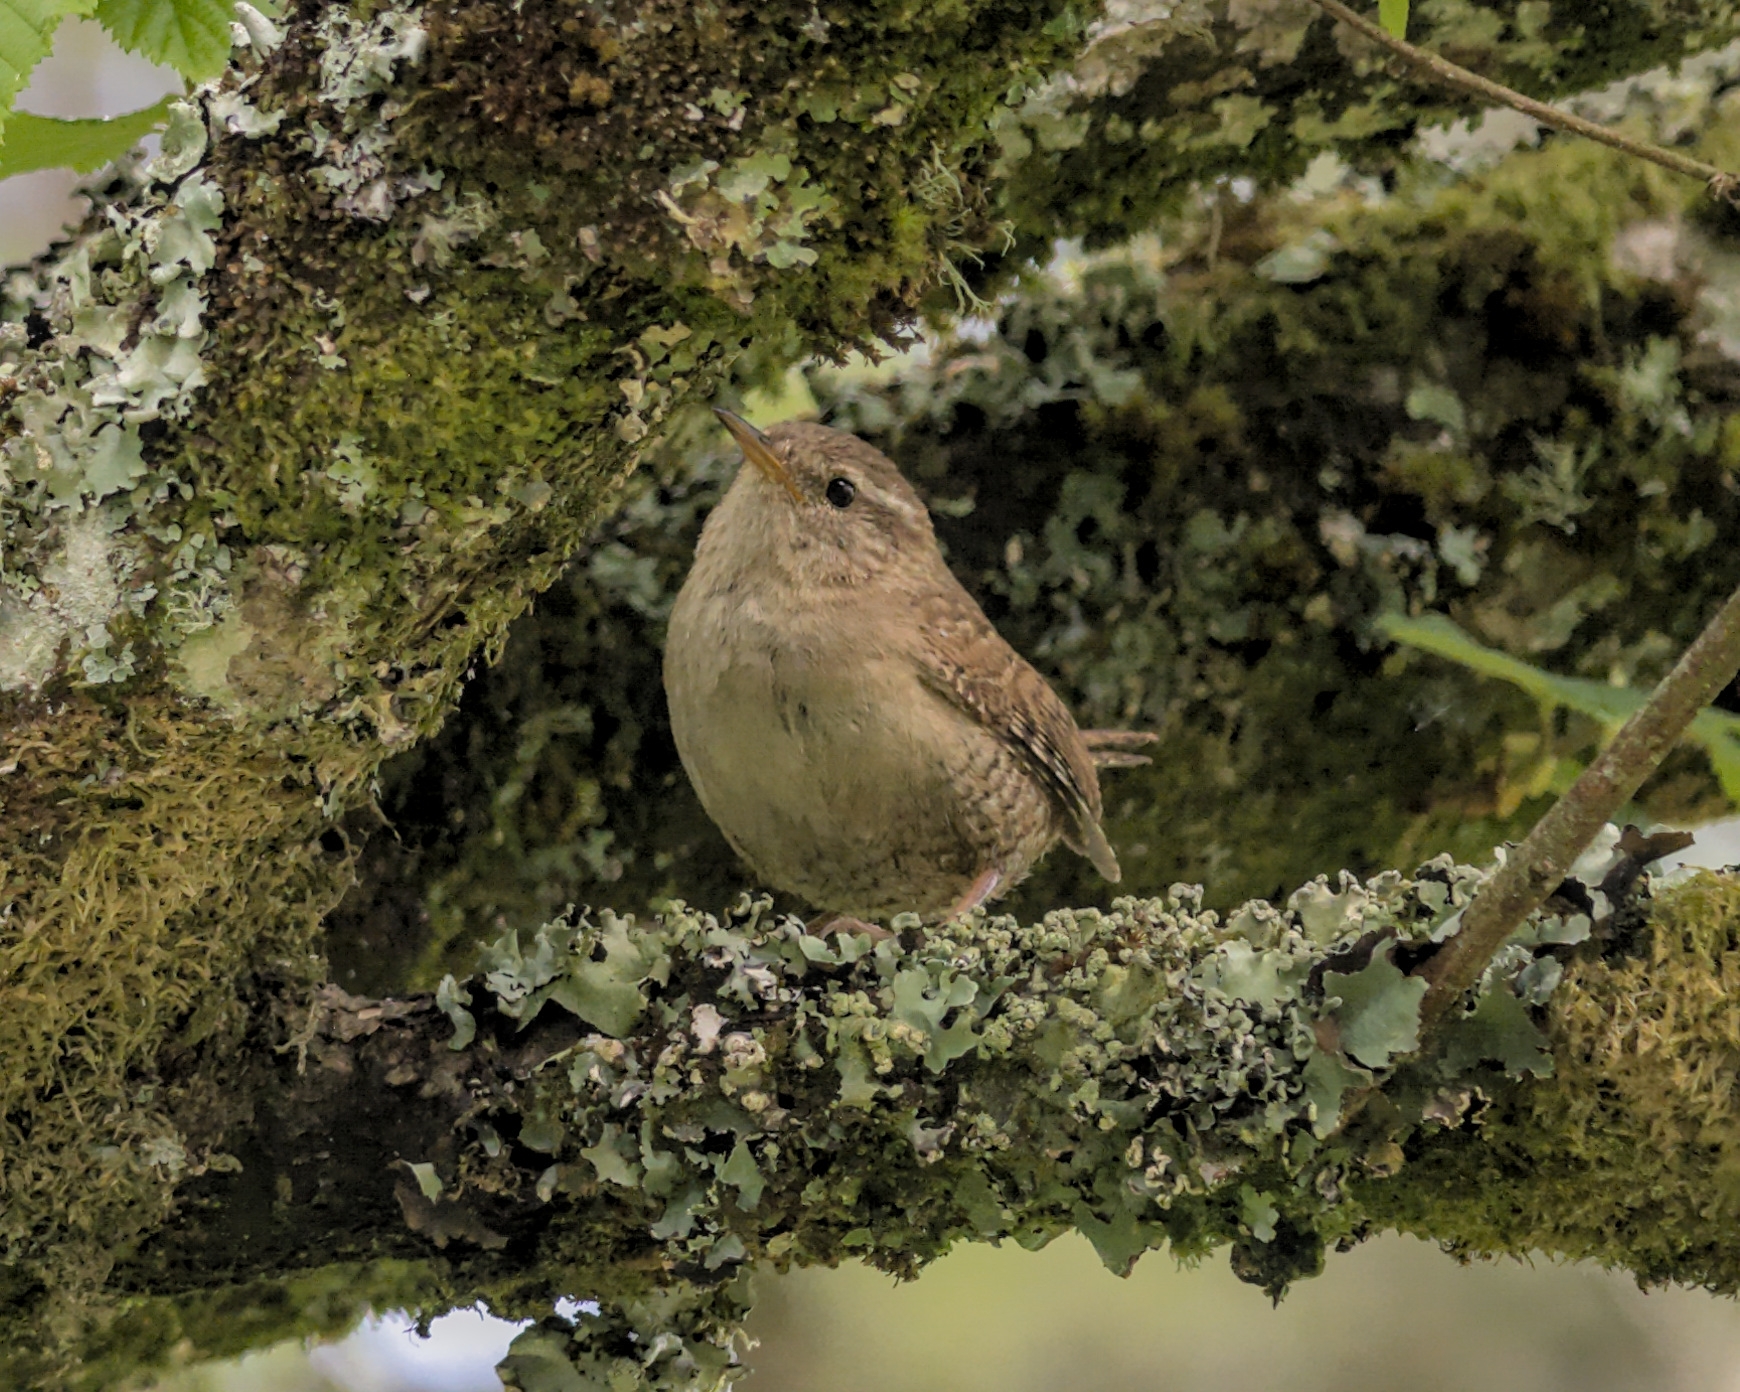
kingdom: Animalia
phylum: Chordata
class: Aves
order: Passeriformes
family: Troglodytidae
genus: Troglodytes
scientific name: Troglodytes troglodytes
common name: Eurasian wren
